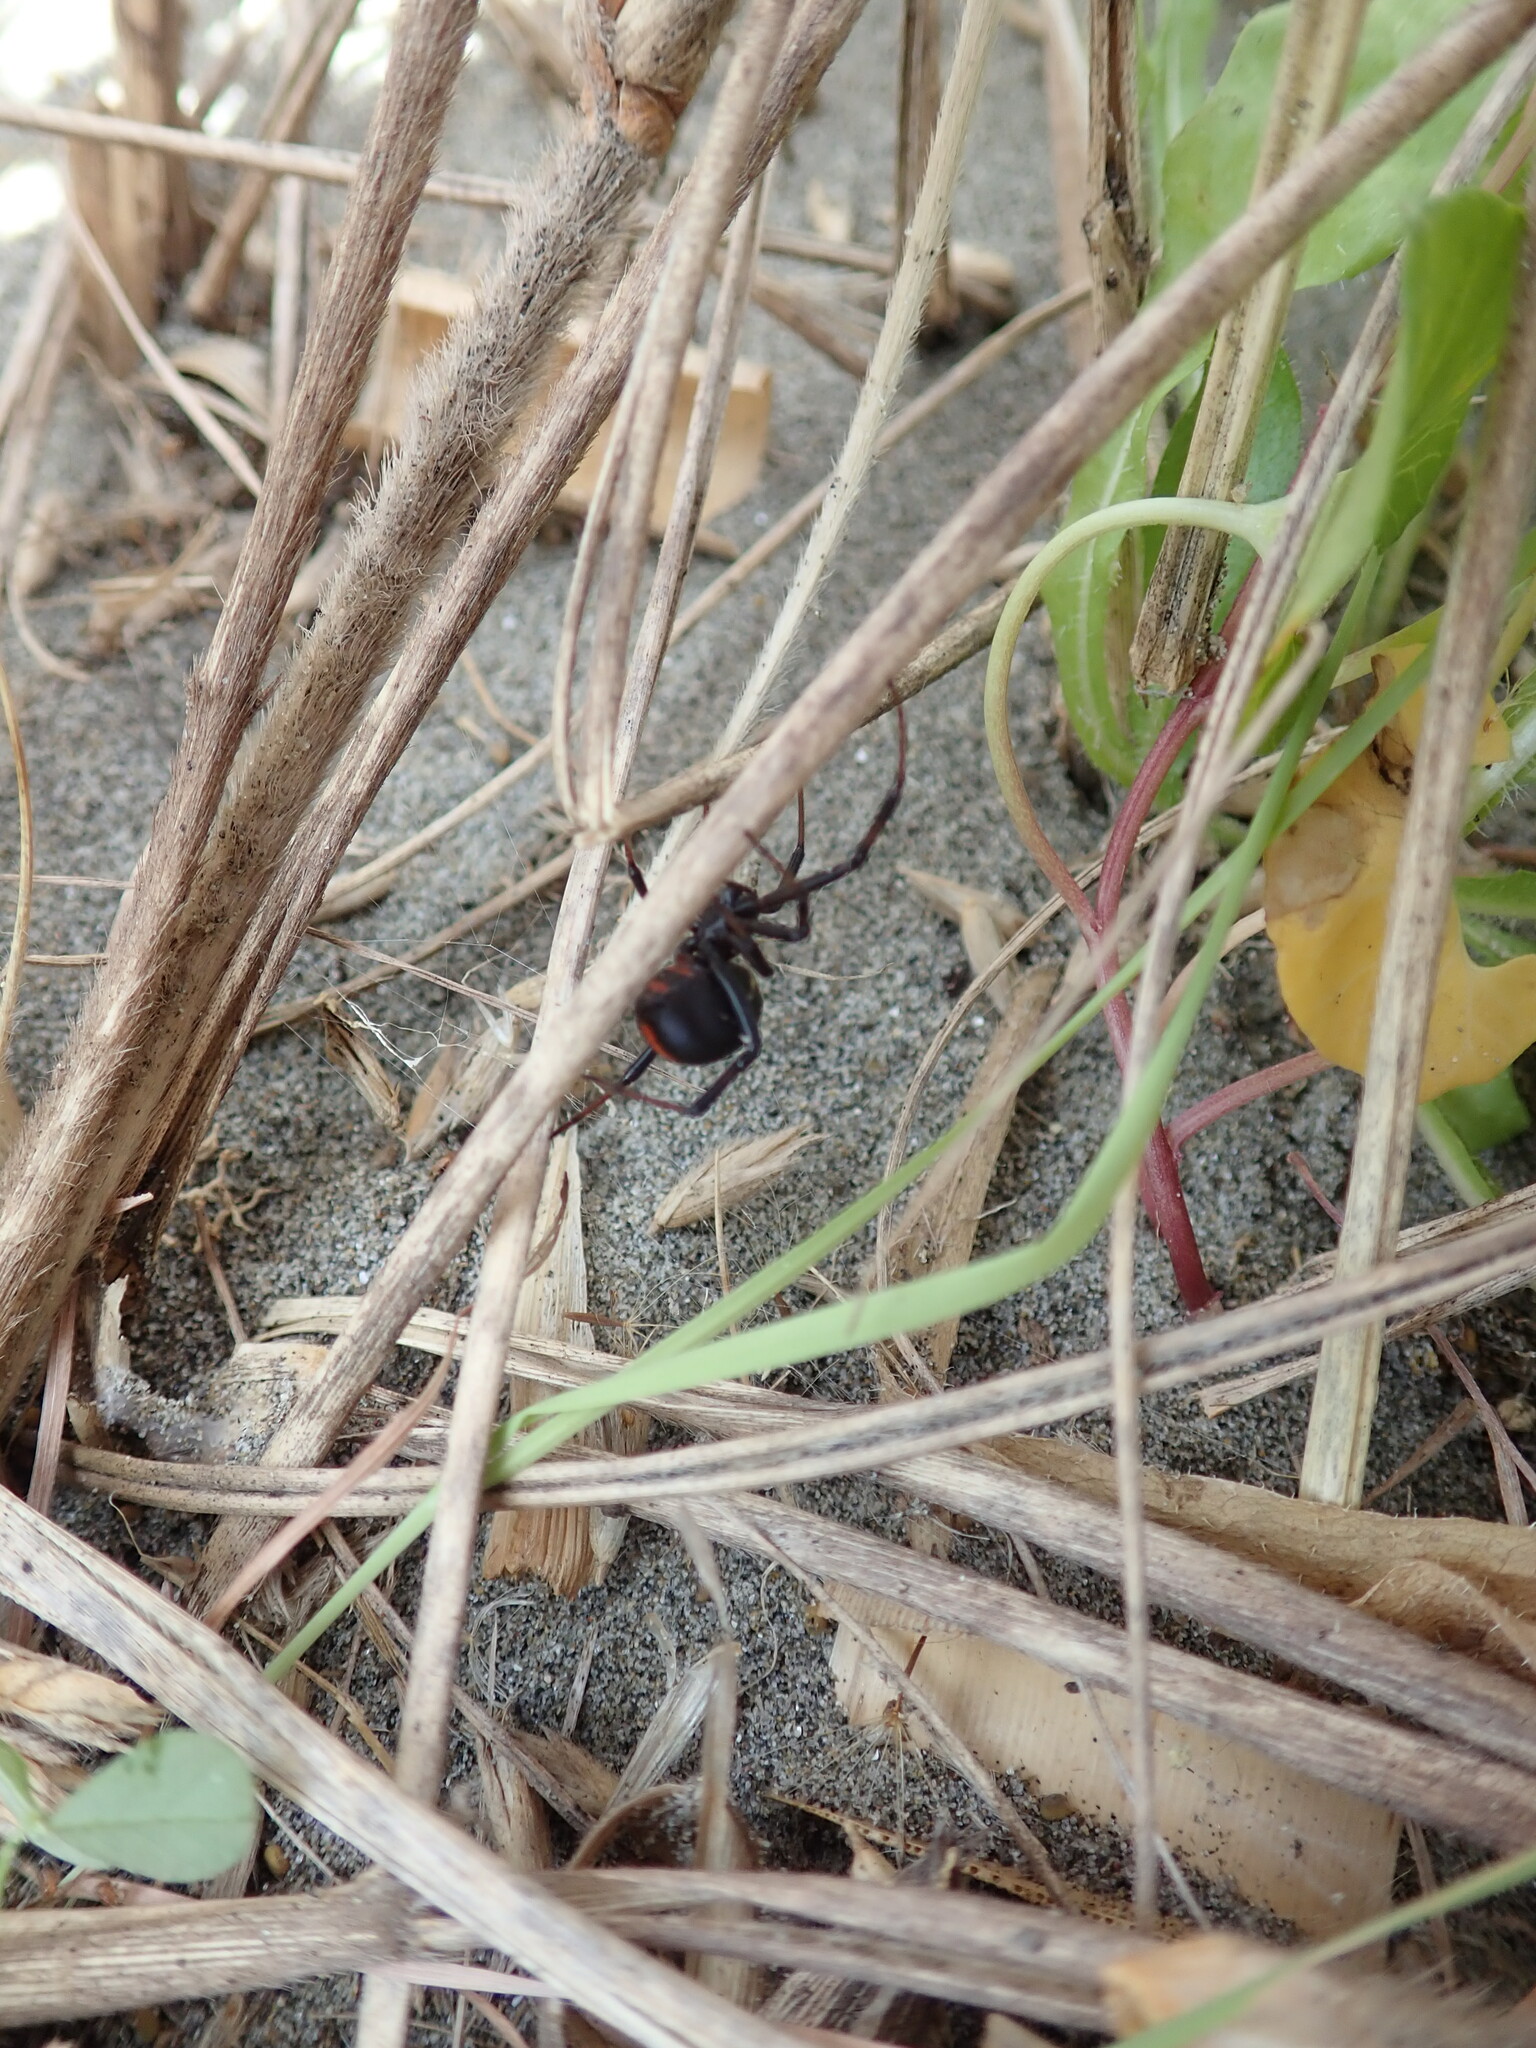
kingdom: Animalia
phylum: Arthropoda
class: Arachnida
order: Araneae
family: Theridiidae
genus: Latrodectus
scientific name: Latrodectus katipo
